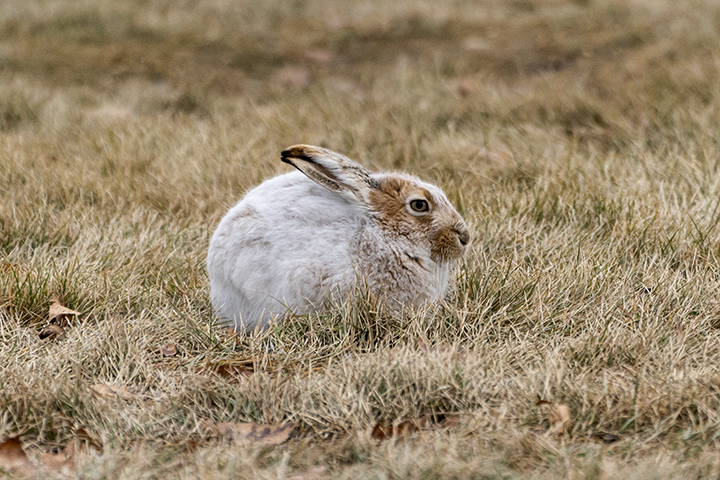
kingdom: Animalia
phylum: Chordata
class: Mammalia
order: Lagomorpha
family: Leporidae
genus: Lepus
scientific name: Lepus townsendii
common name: White-tailed jackrabbit
